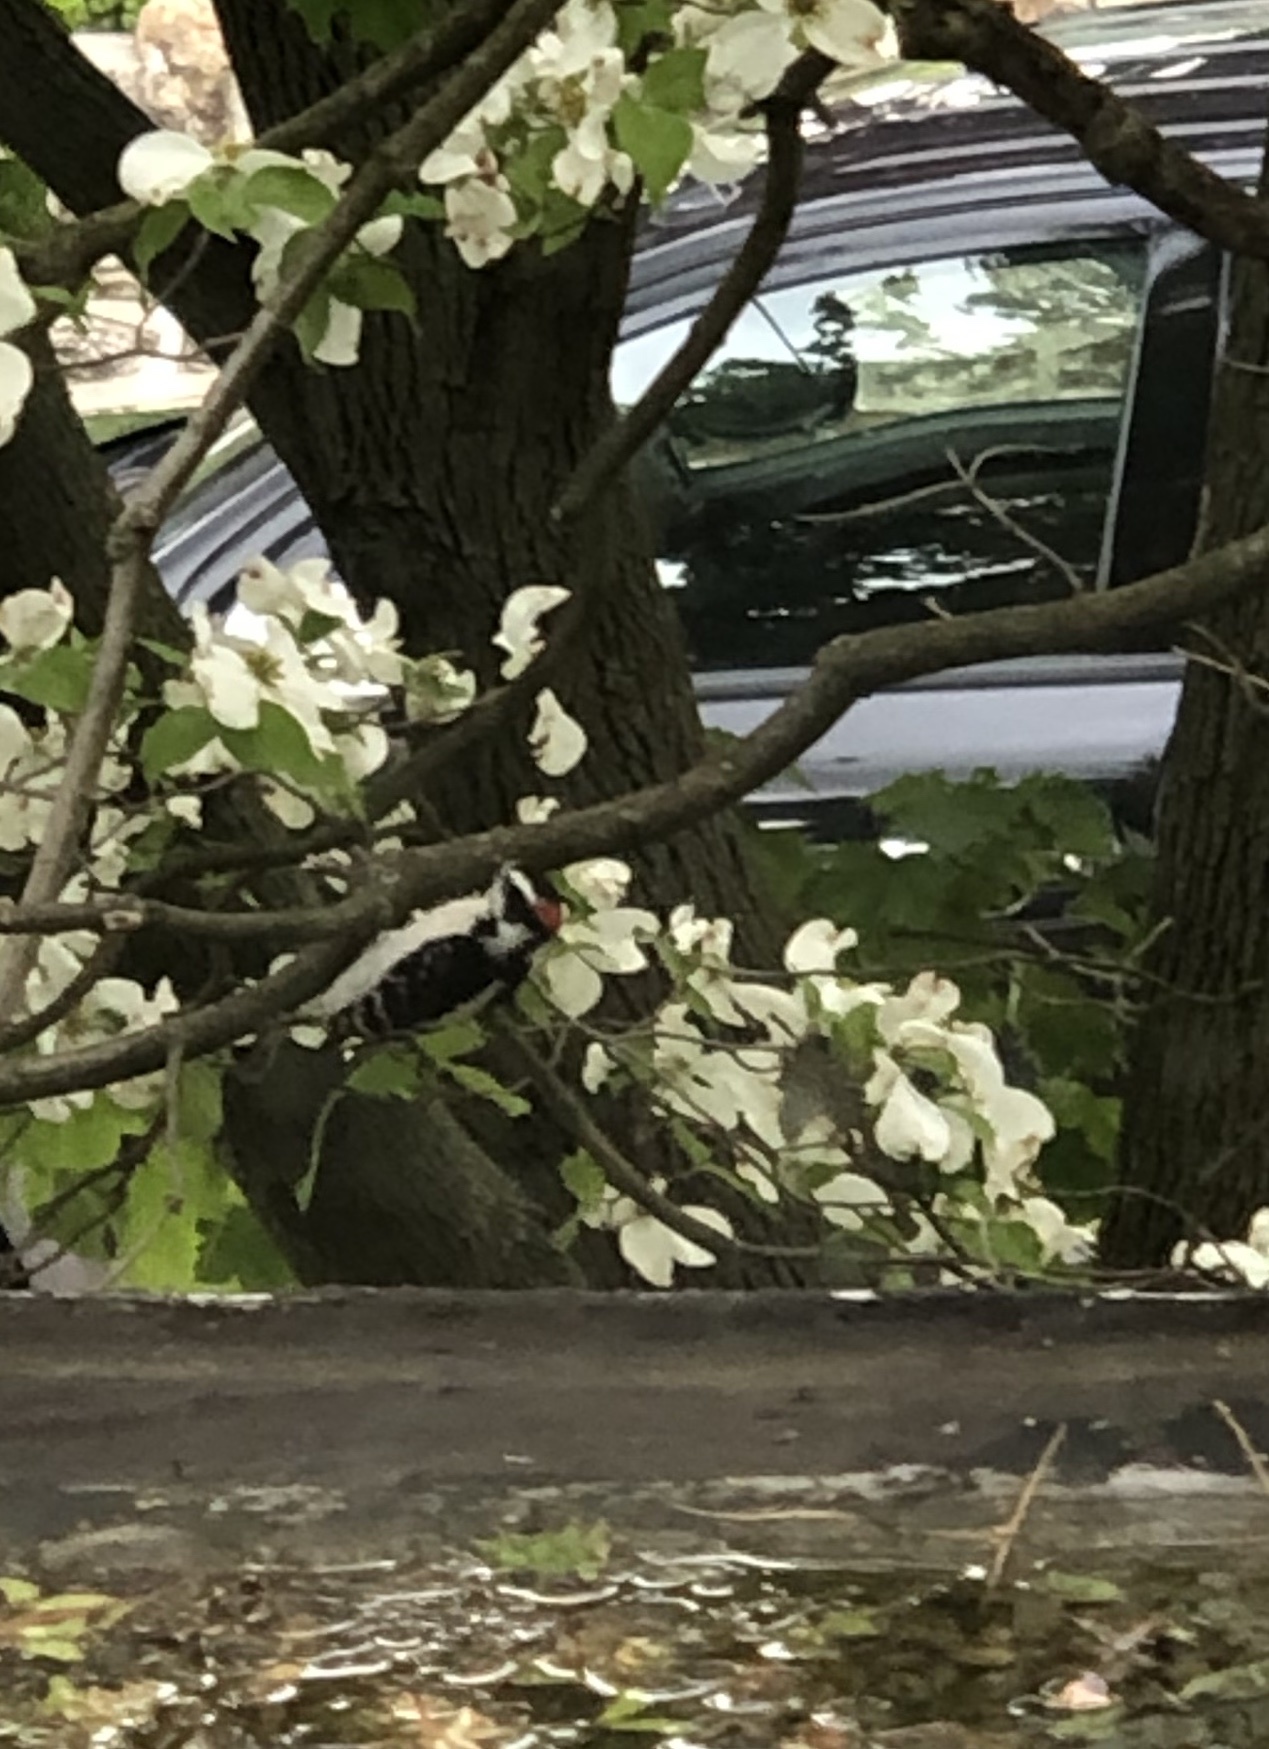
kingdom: Animalia
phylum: Chordata
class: Aves
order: Piciformes
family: Picidae
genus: Dryobates
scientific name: Dryobates pubescens
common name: Downy woodpecker
